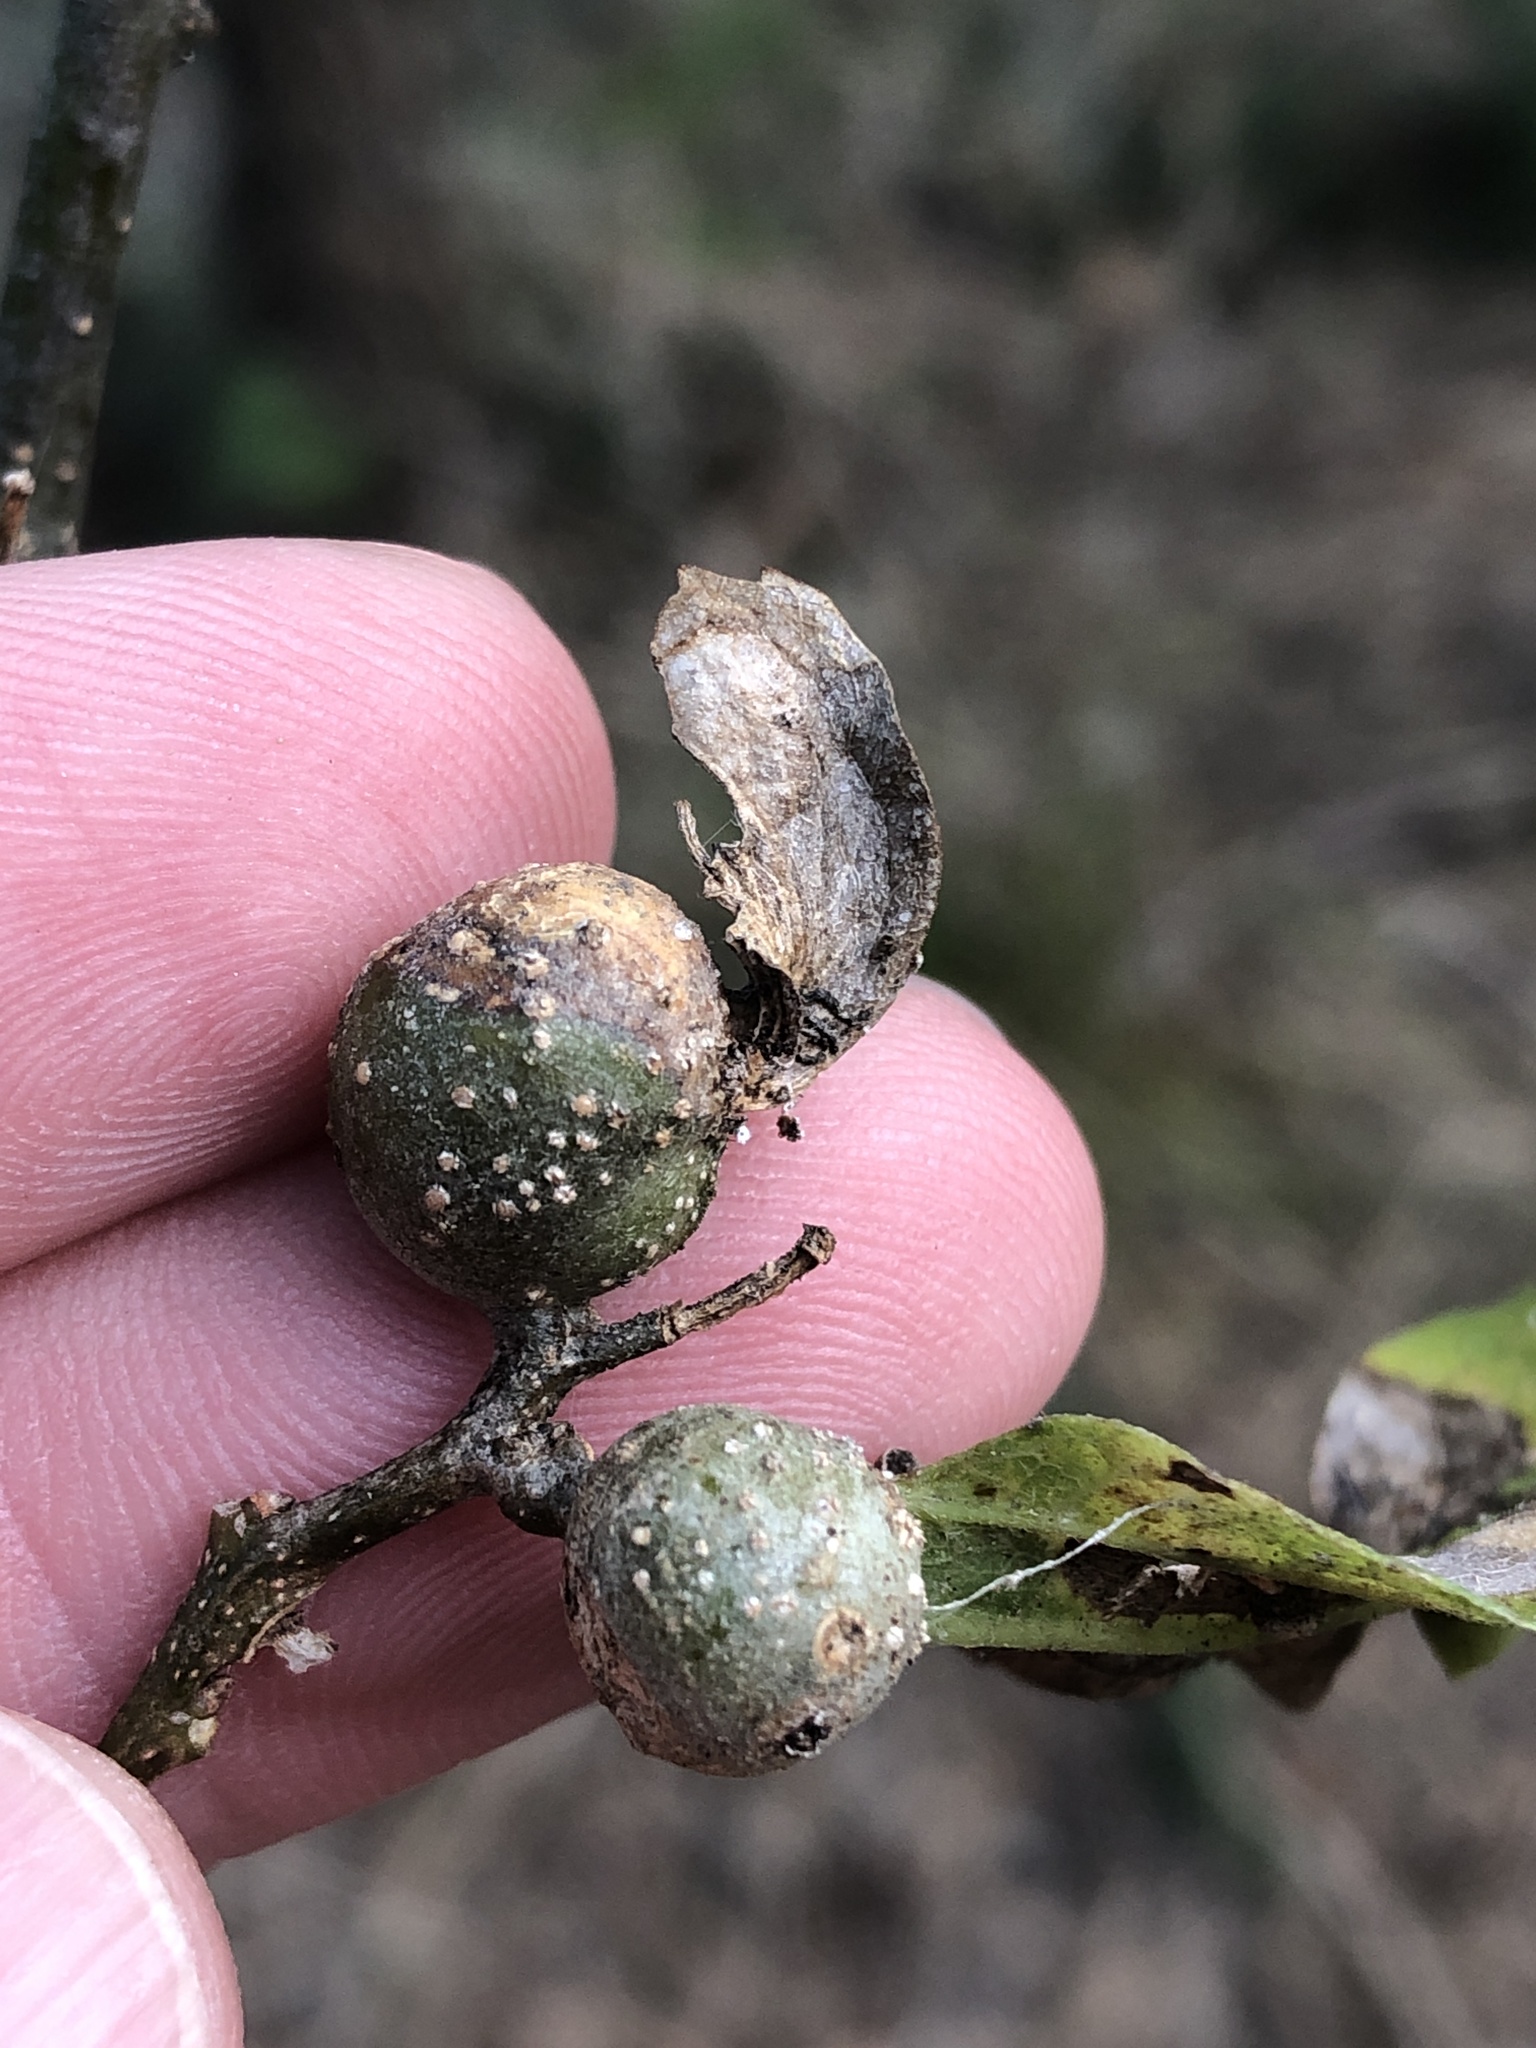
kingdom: Animalia
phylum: Arthropoda
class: Insecta
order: Hemiptera
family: Aphalaridae
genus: Pachypsylla
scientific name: Pachypsylla venusta
